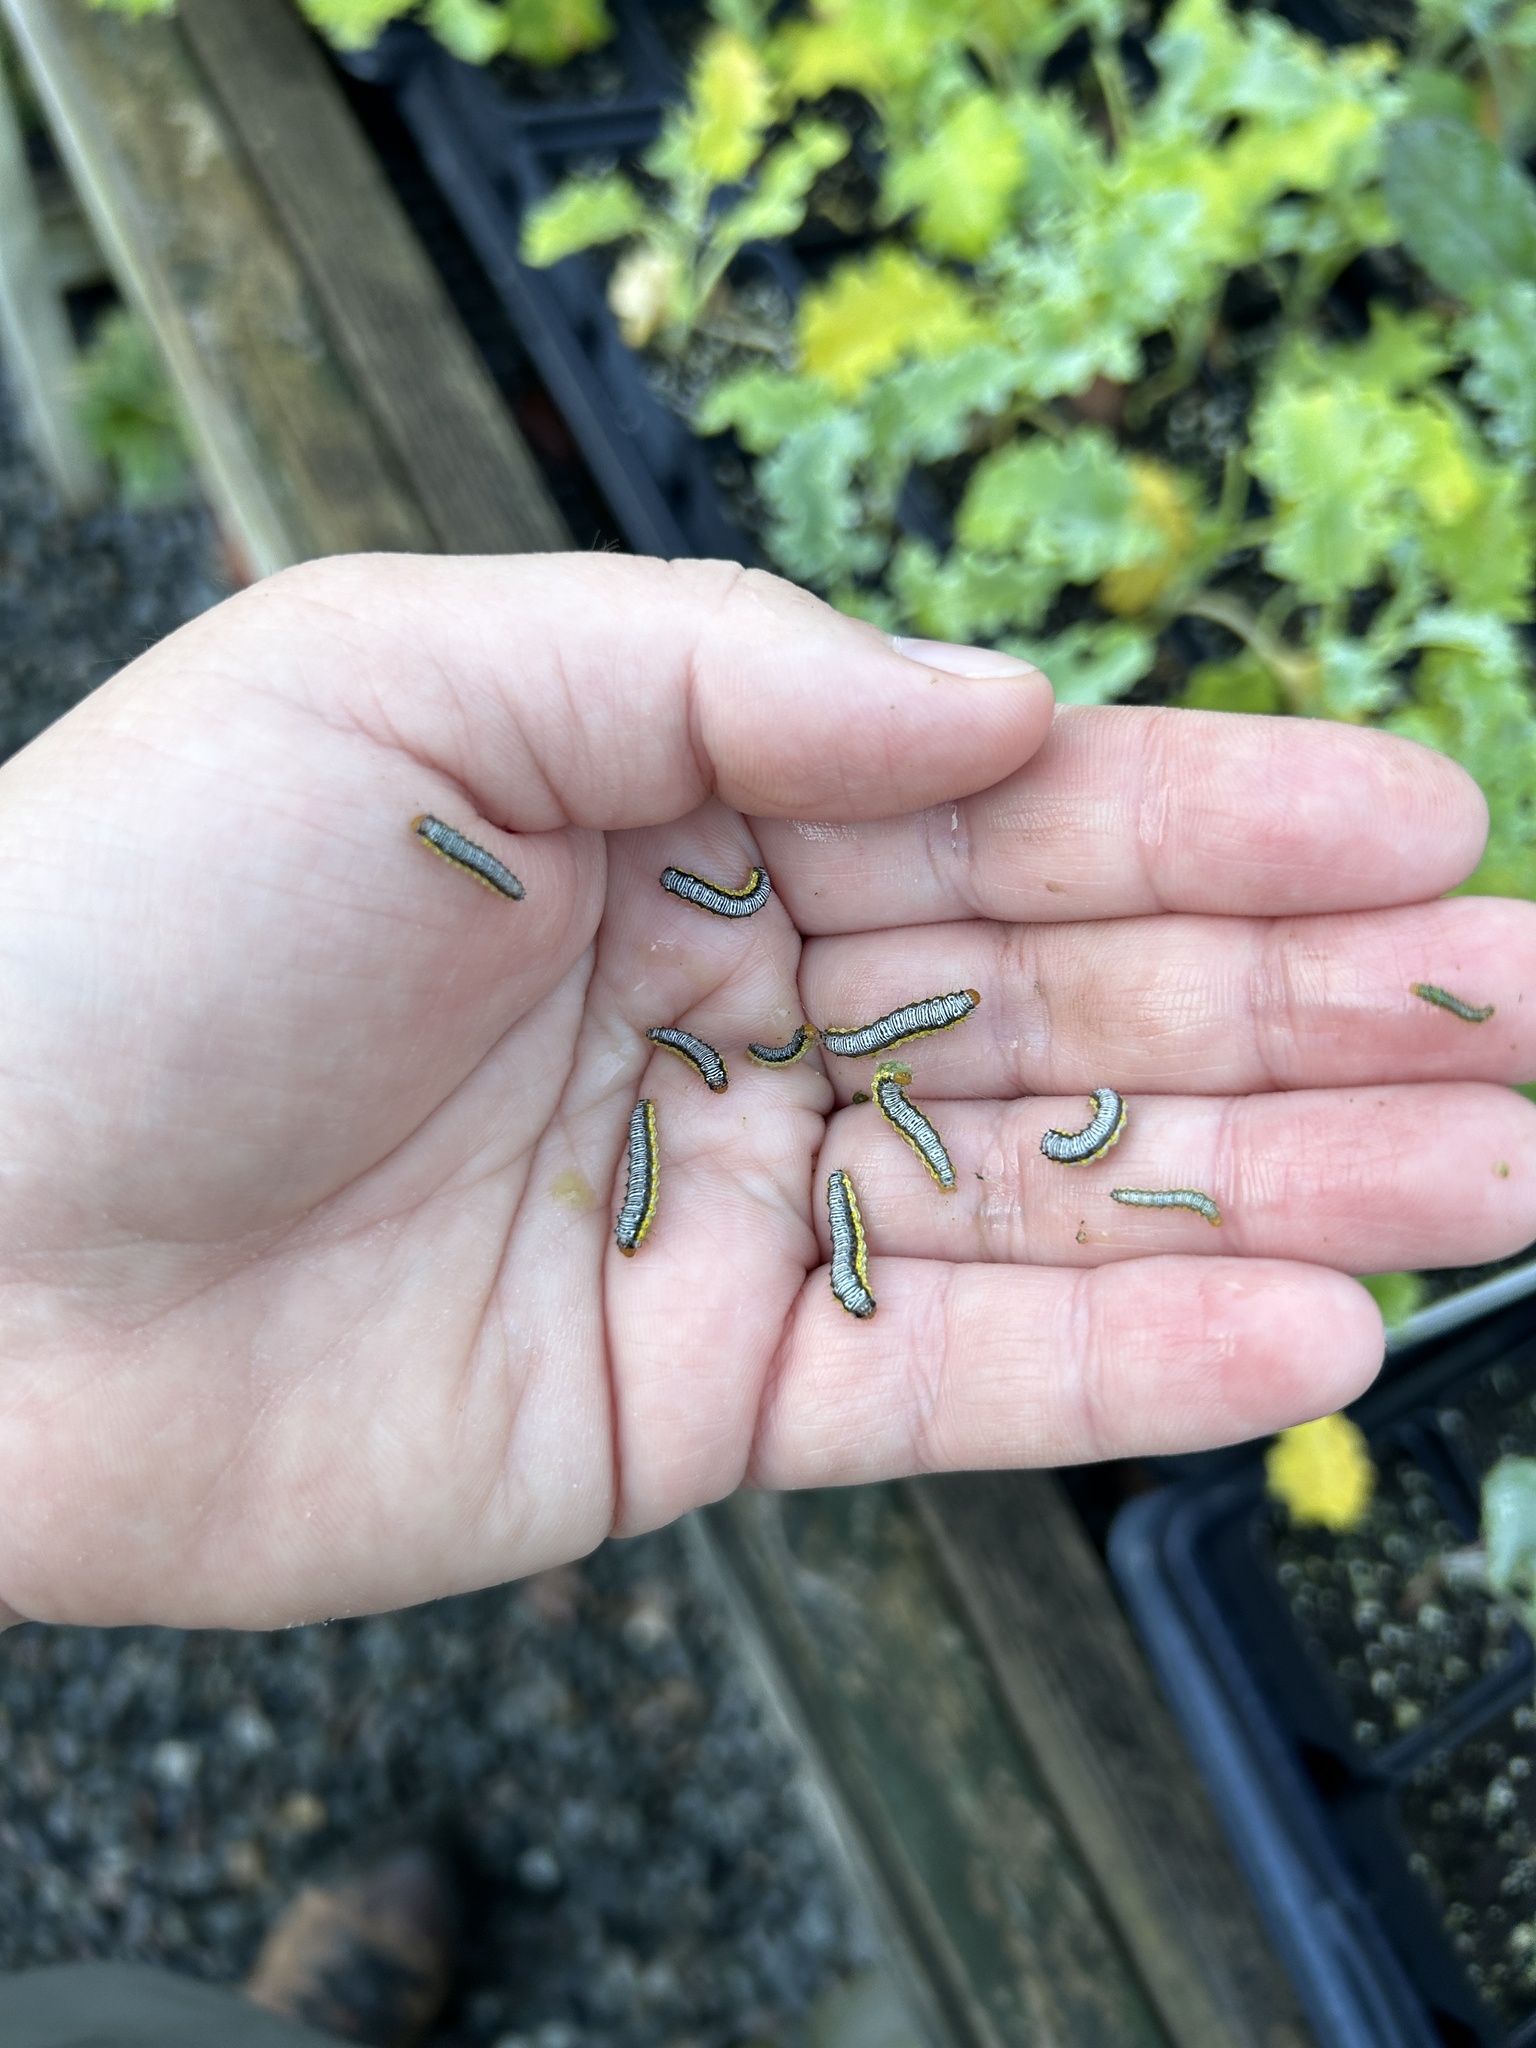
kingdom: Animalia
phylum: Arthropoda
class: Insecta
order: Lepidoptera
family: Crambidae
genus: Evergestis
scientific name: Evergestis rimosalis
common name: Cross-striped cabbageworm moth
